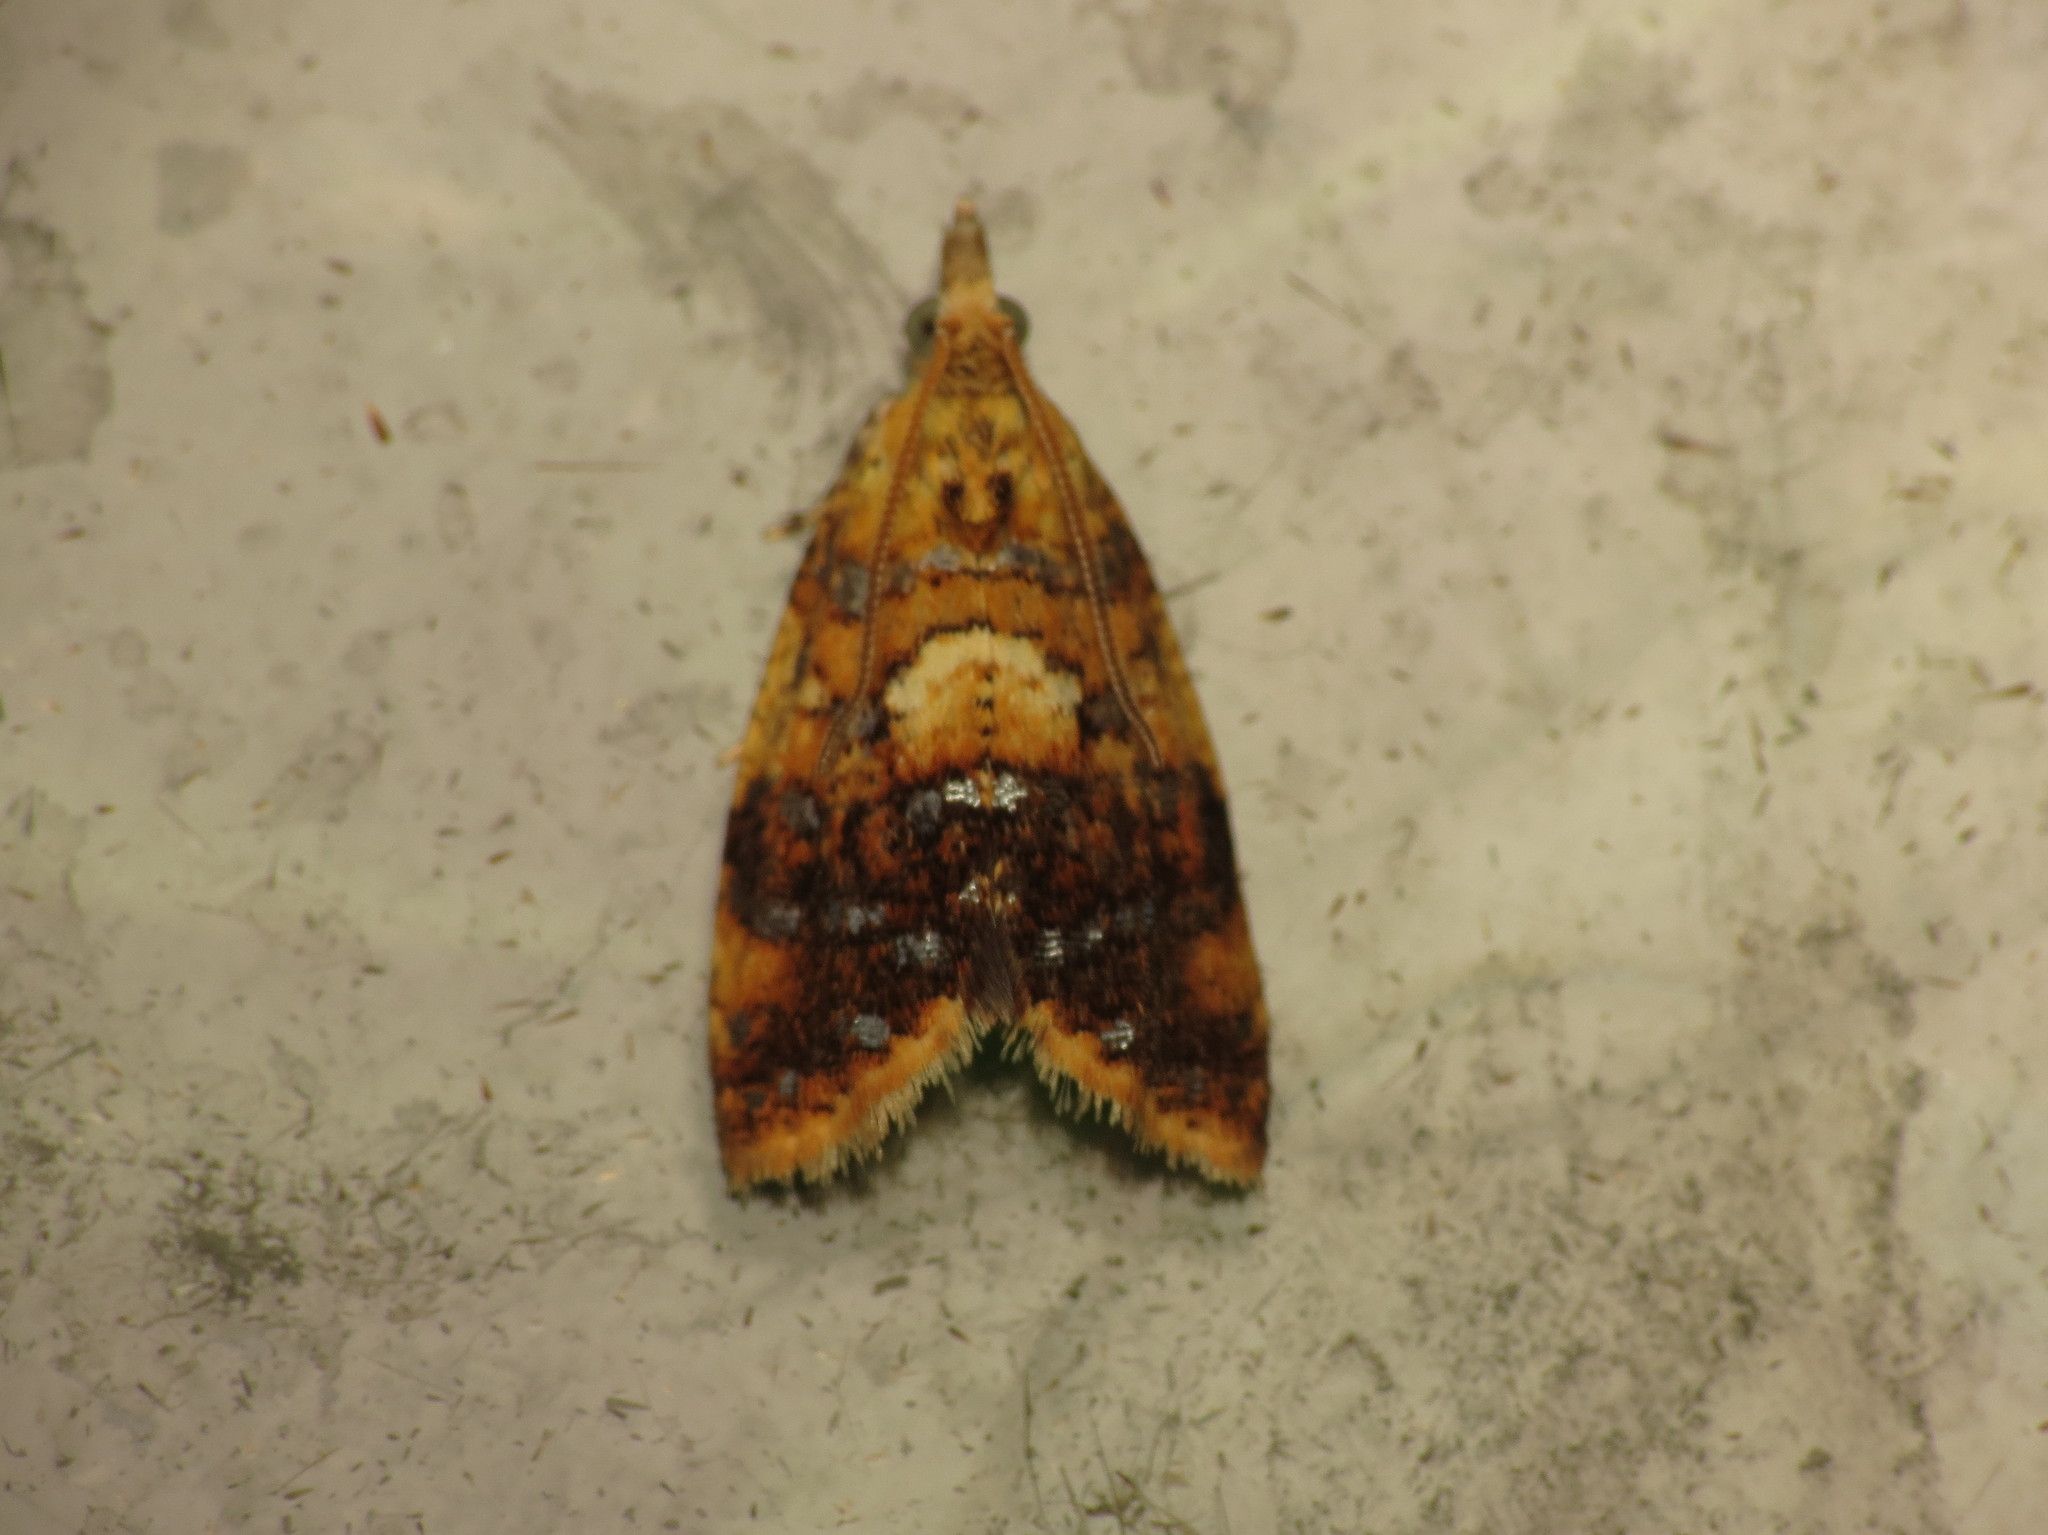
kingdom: Animalia
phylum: Arthropoda
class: Insecta
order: Lepidoptera
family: Tortricidae
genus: Pseudargyrotoza
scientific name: Pseudargyrotoza conwagana
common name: Yellow-spot twist
